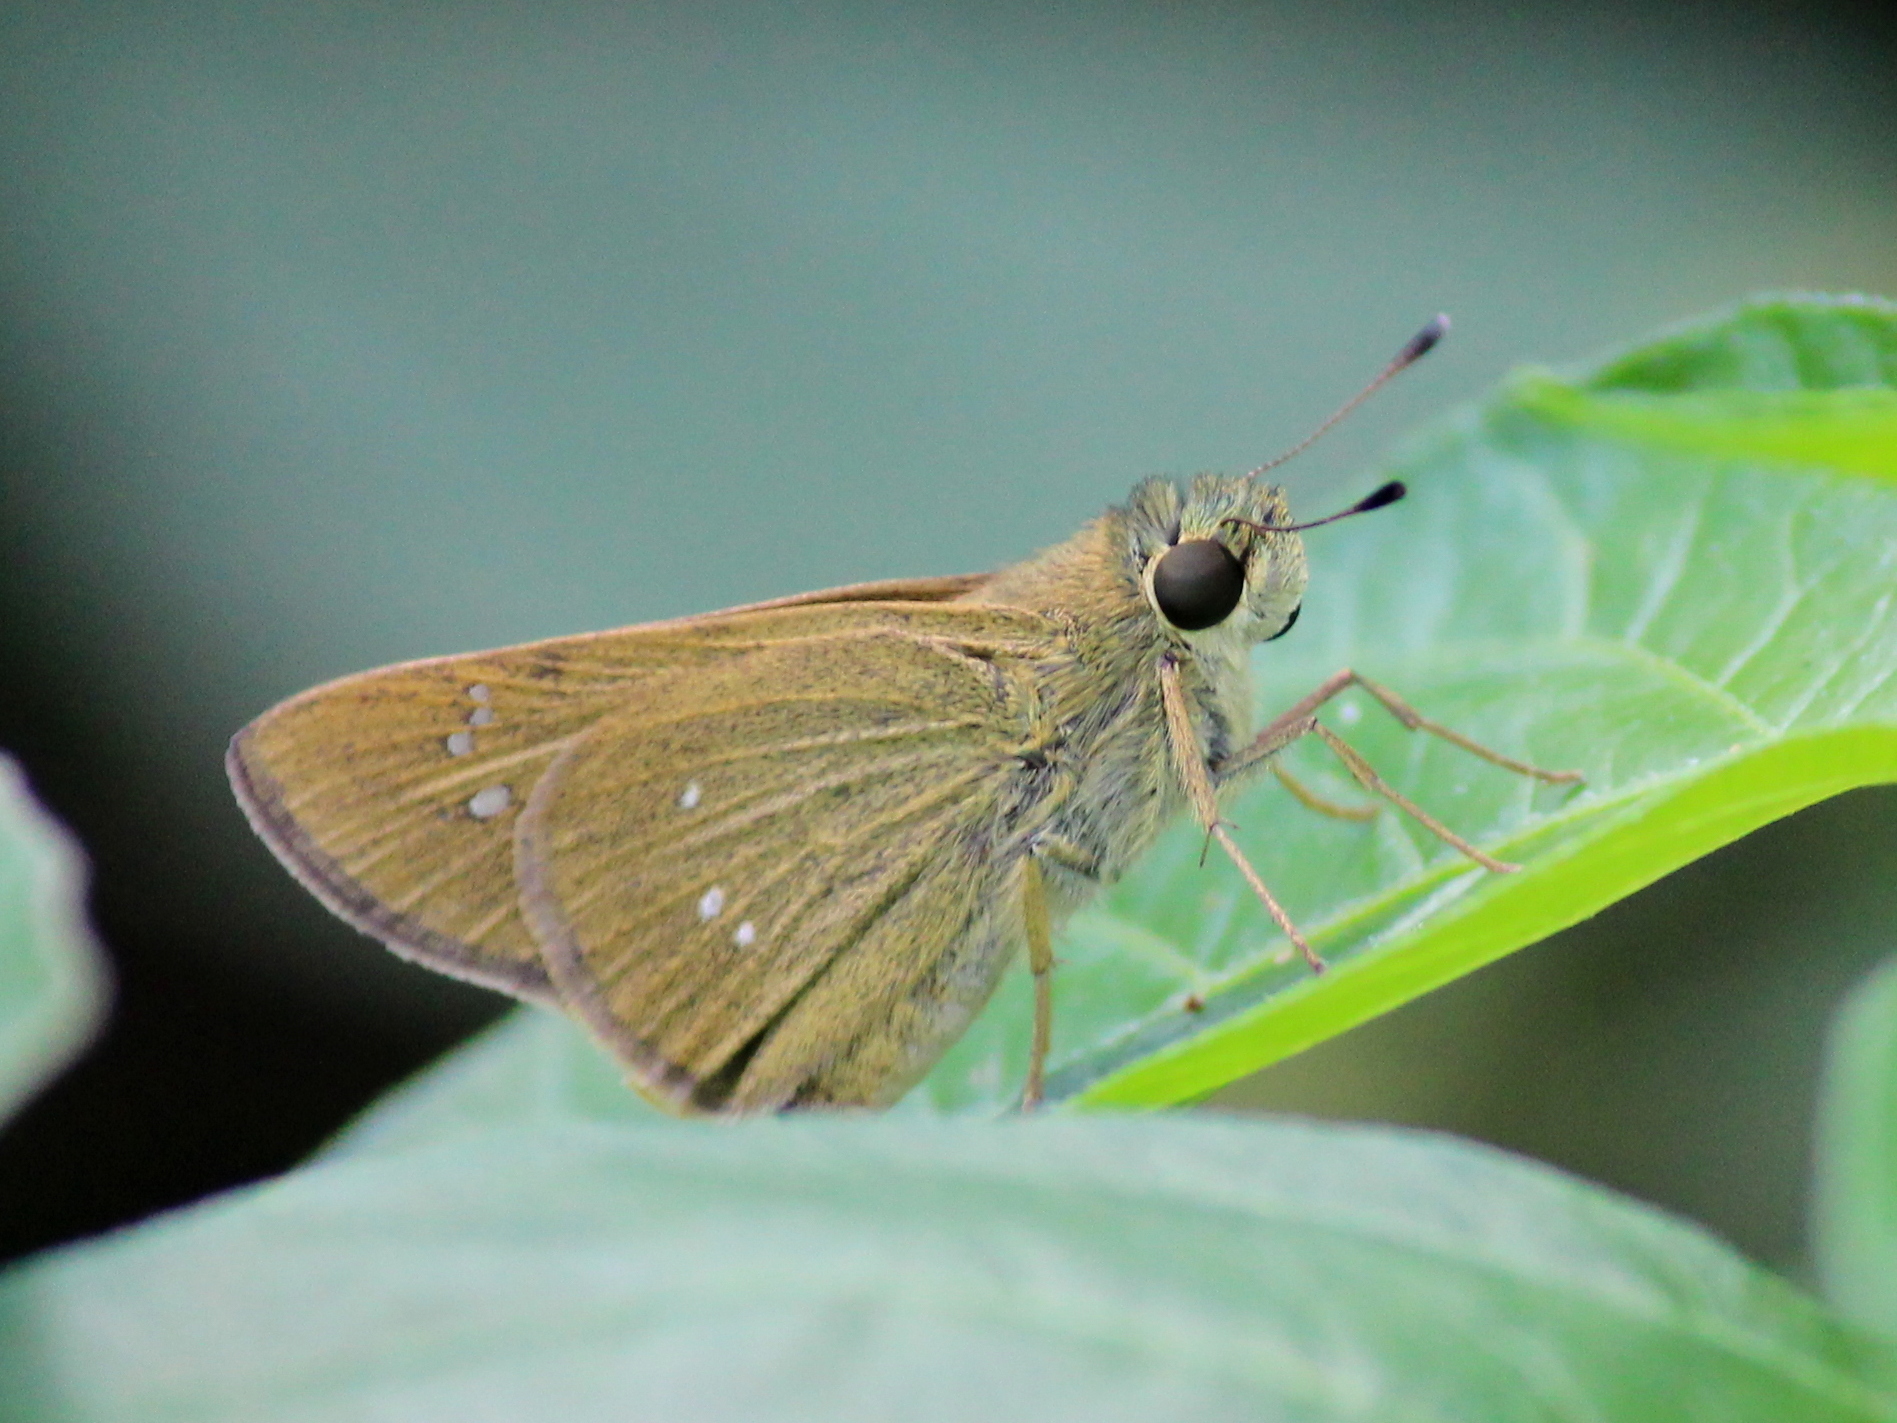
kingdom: Animalia
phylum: Arthropoda
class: Insecta
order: Lepidoptera
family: Hesperiidae
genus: Borbo
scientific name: Borbo cinnara
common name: Formosan swift
